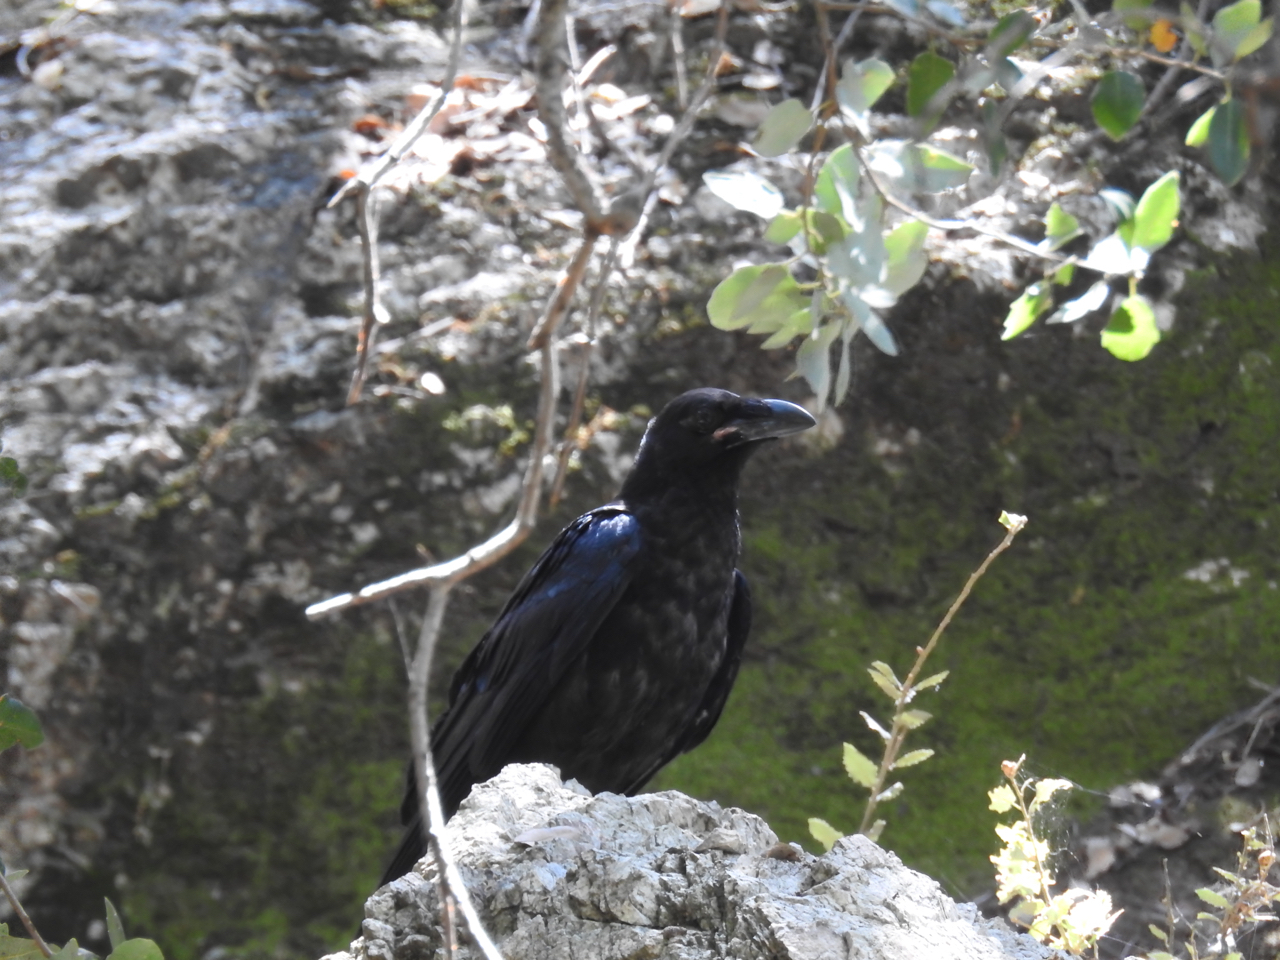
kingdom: Animalia
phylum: Chordata
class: Aves
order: Passeriformes
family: Corvidae
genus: Corvus
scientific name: Corvus corax
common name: Common raven
